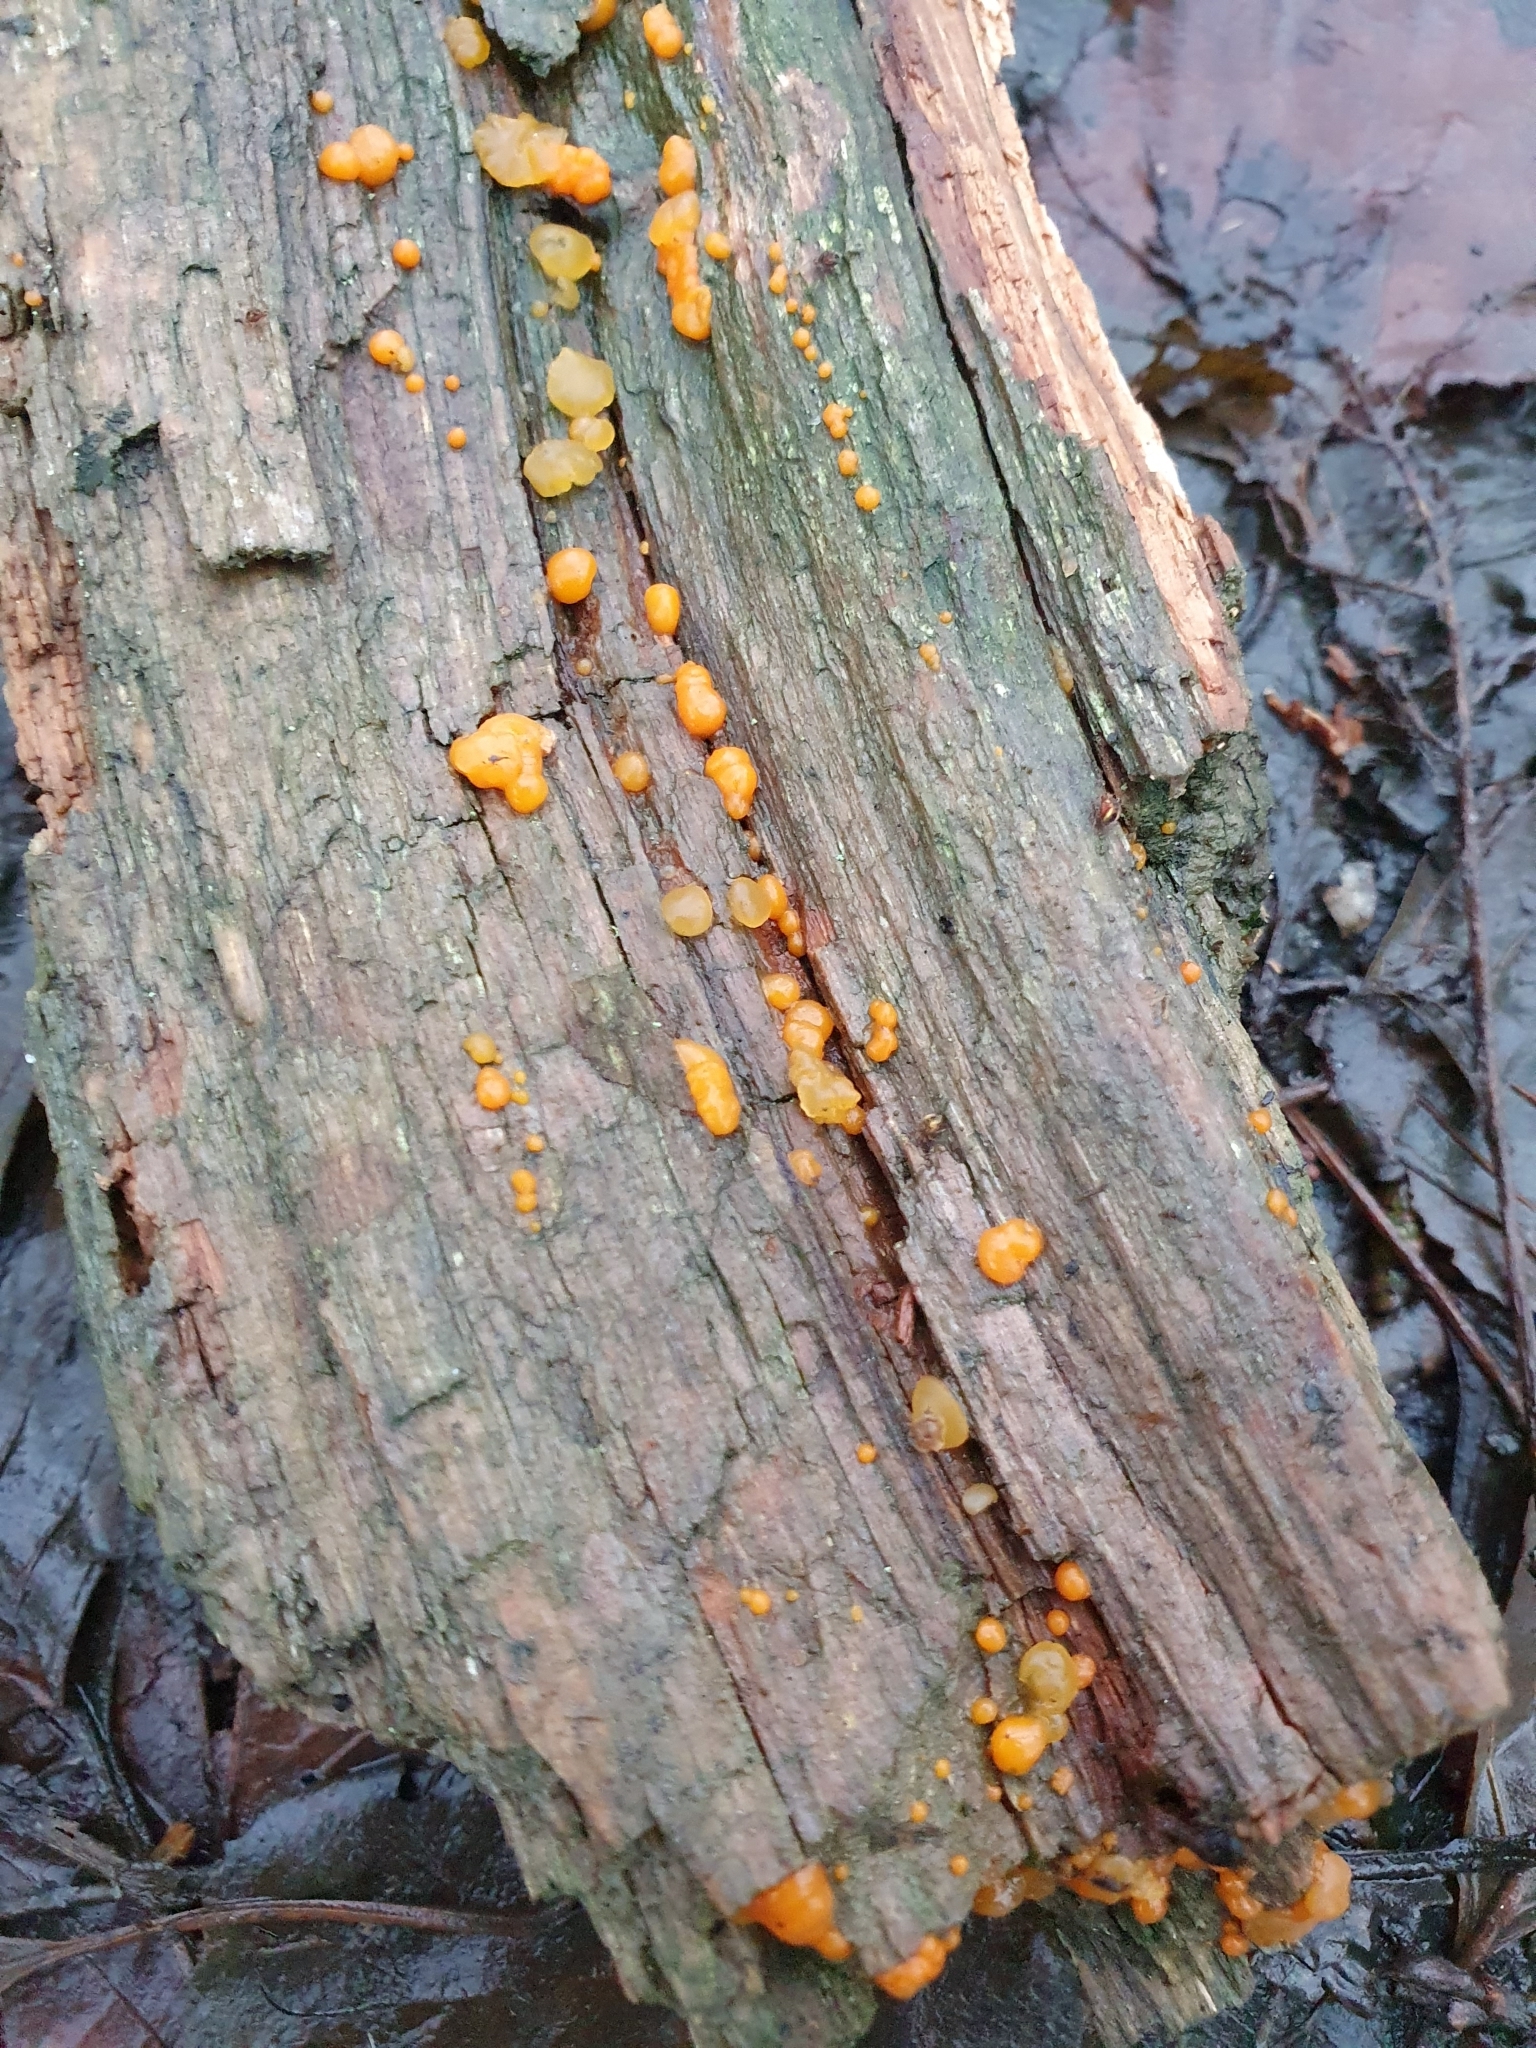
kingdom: Fungi
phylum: Basidiomycota
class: Dacrymycetes
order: Dacrymycetales
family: Dacrymycetaceae
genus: Dacrymyces
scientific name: Dacrymyces stillatus
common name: Common jelly spot
